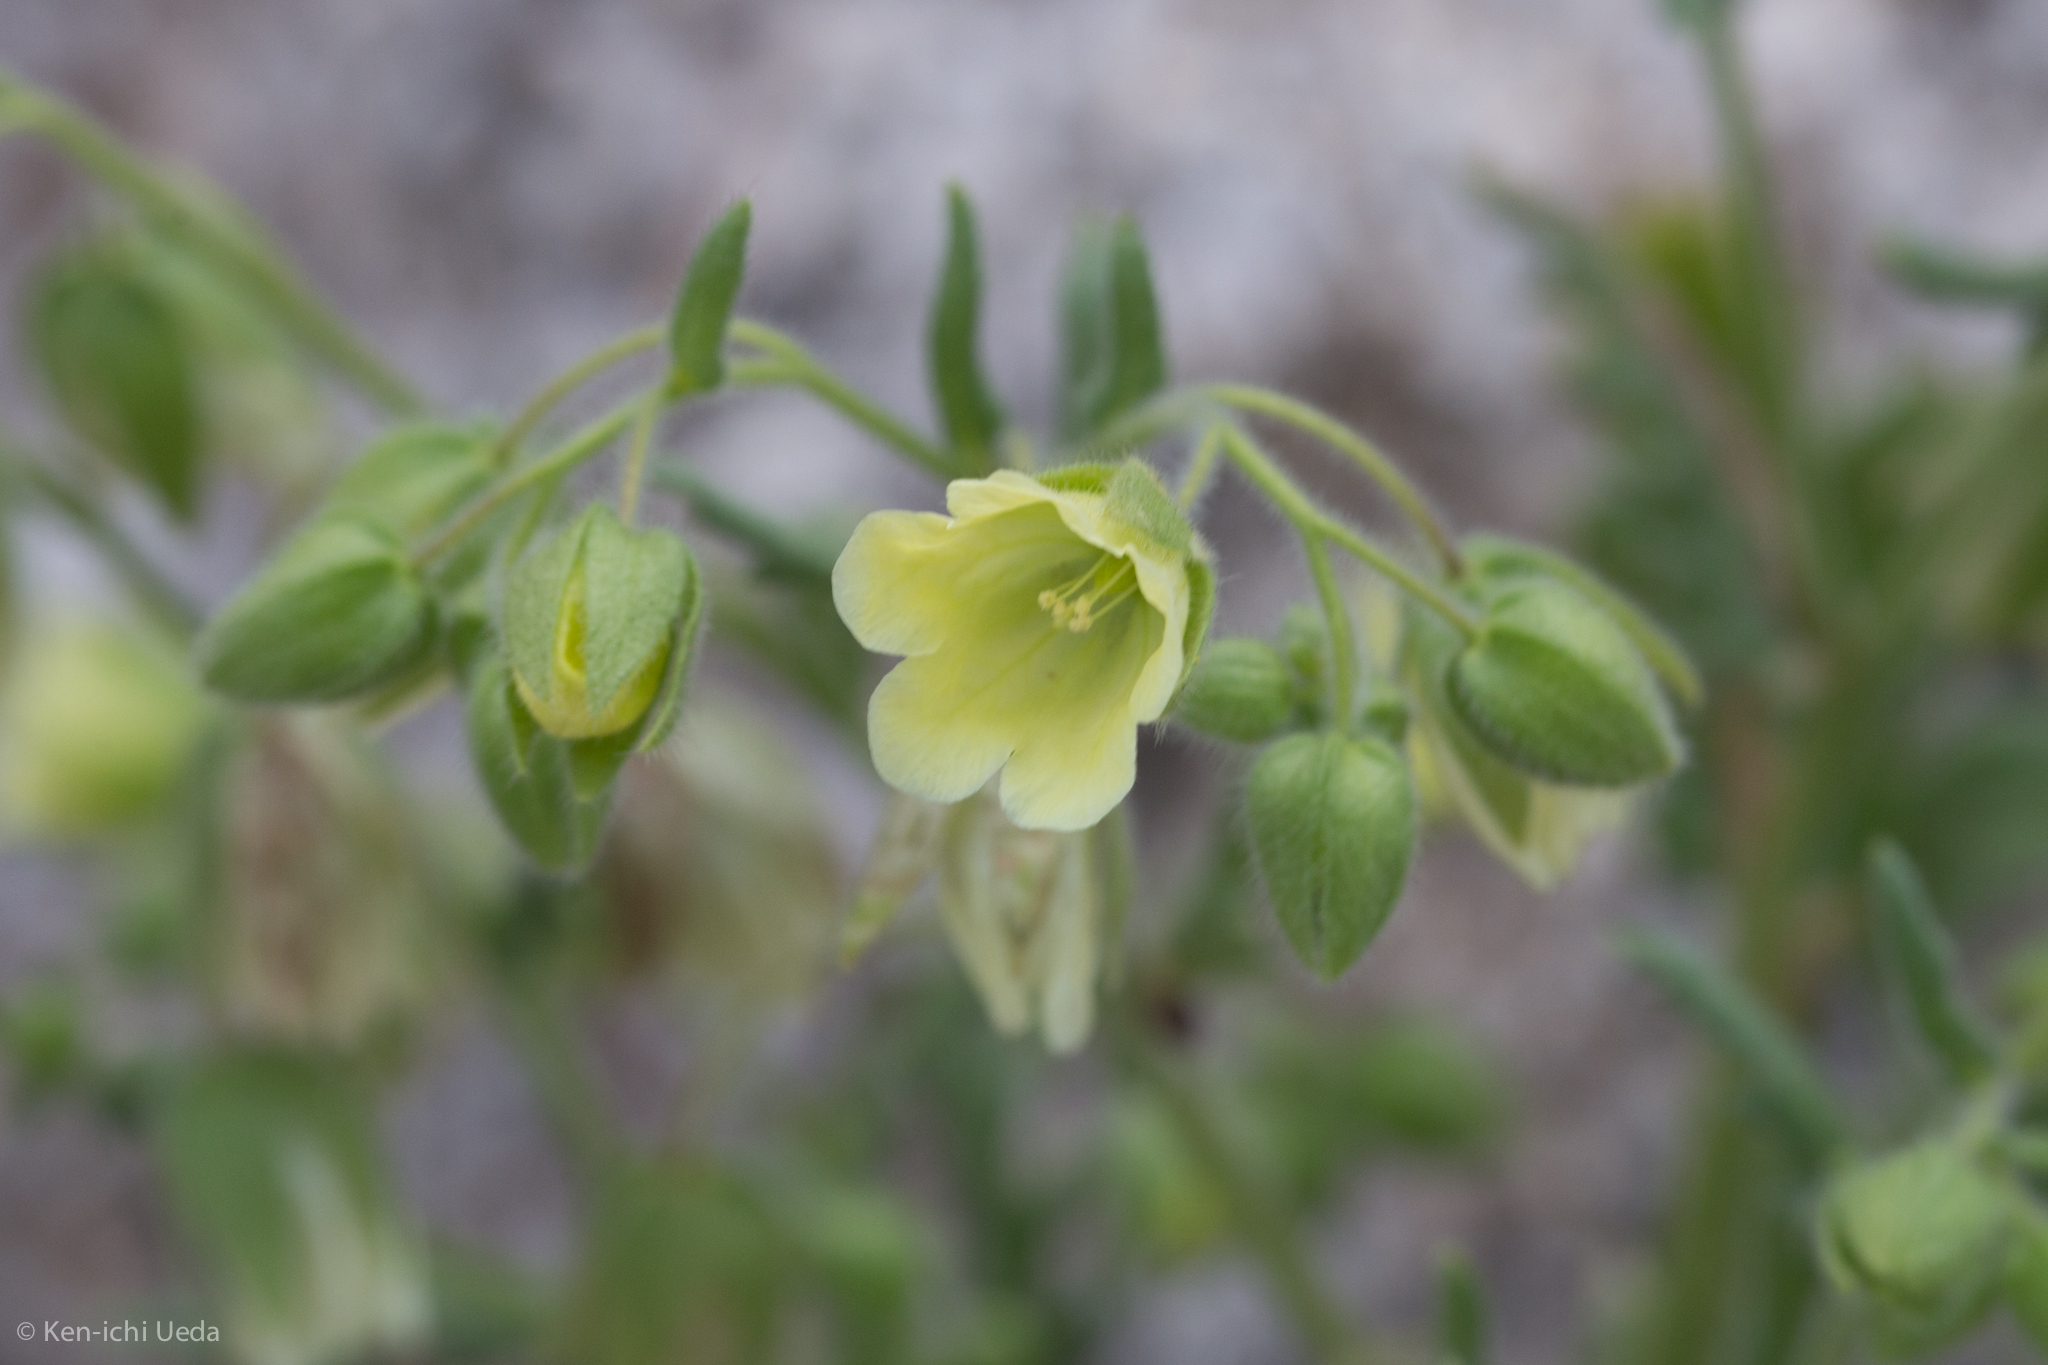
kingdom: Plantae
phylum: Tracheophyta
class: Magnoliopsida
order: Boraginales
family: Hydrophyllaceae
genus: Emmenanthe
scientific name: Emmenanthe penduliflora
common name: Whispering-bells
